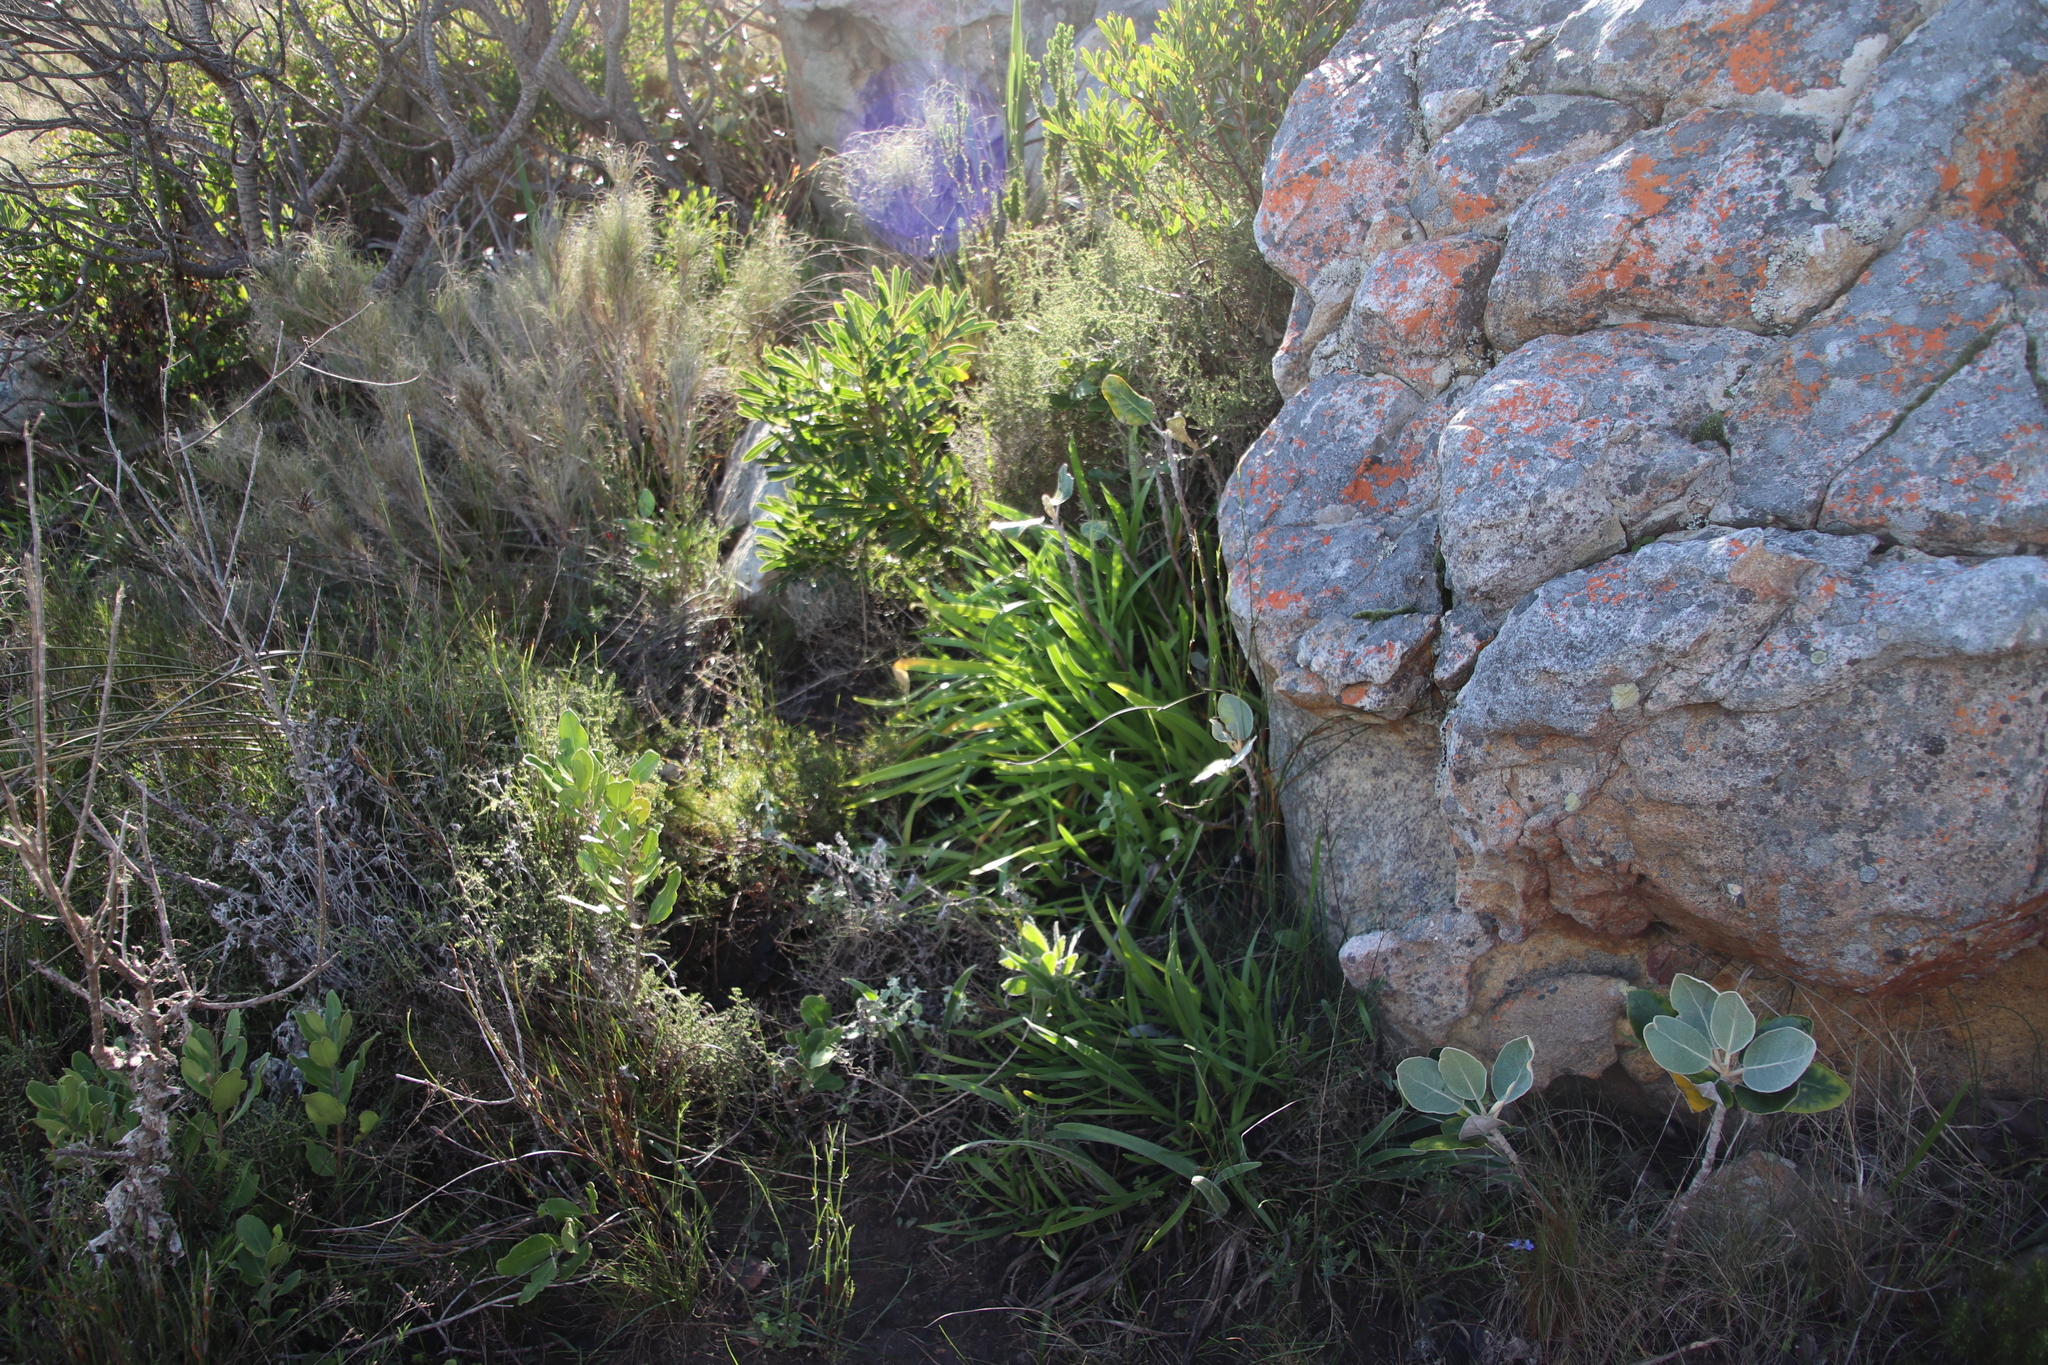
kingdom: Plantae
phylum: Tracheophyta
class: Liliopsida
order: Asparagales
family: Amaryllidaceae
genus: Agapanthus
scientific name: Agapanthus africanus
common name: Lily-of-the-nile
